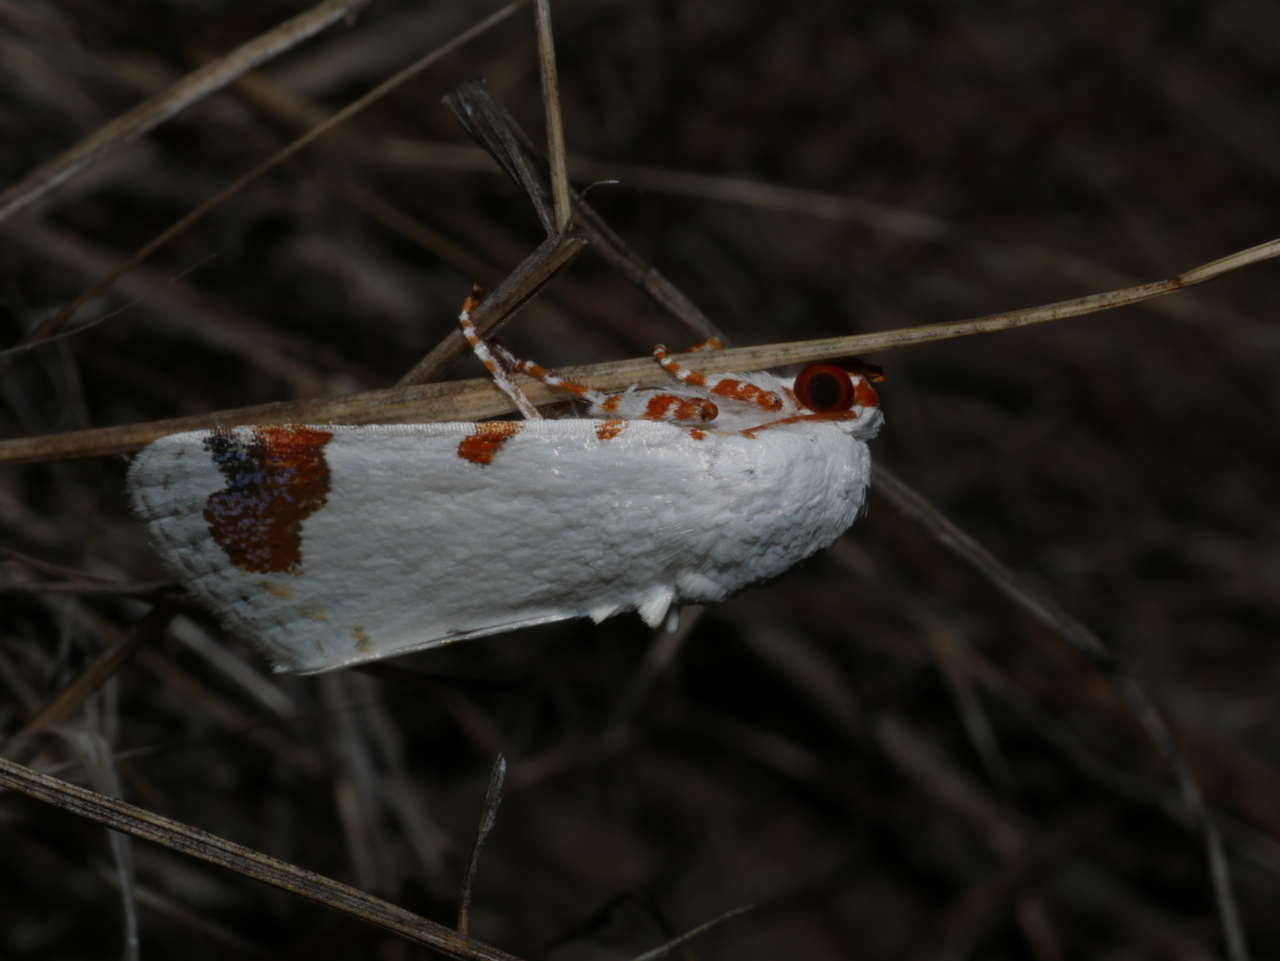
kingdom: Animalia
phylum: Arthropoda
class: Insecta
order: Lepidoptera
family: Noctuidae
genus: Chasmina
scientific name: Chasmina pulchra
